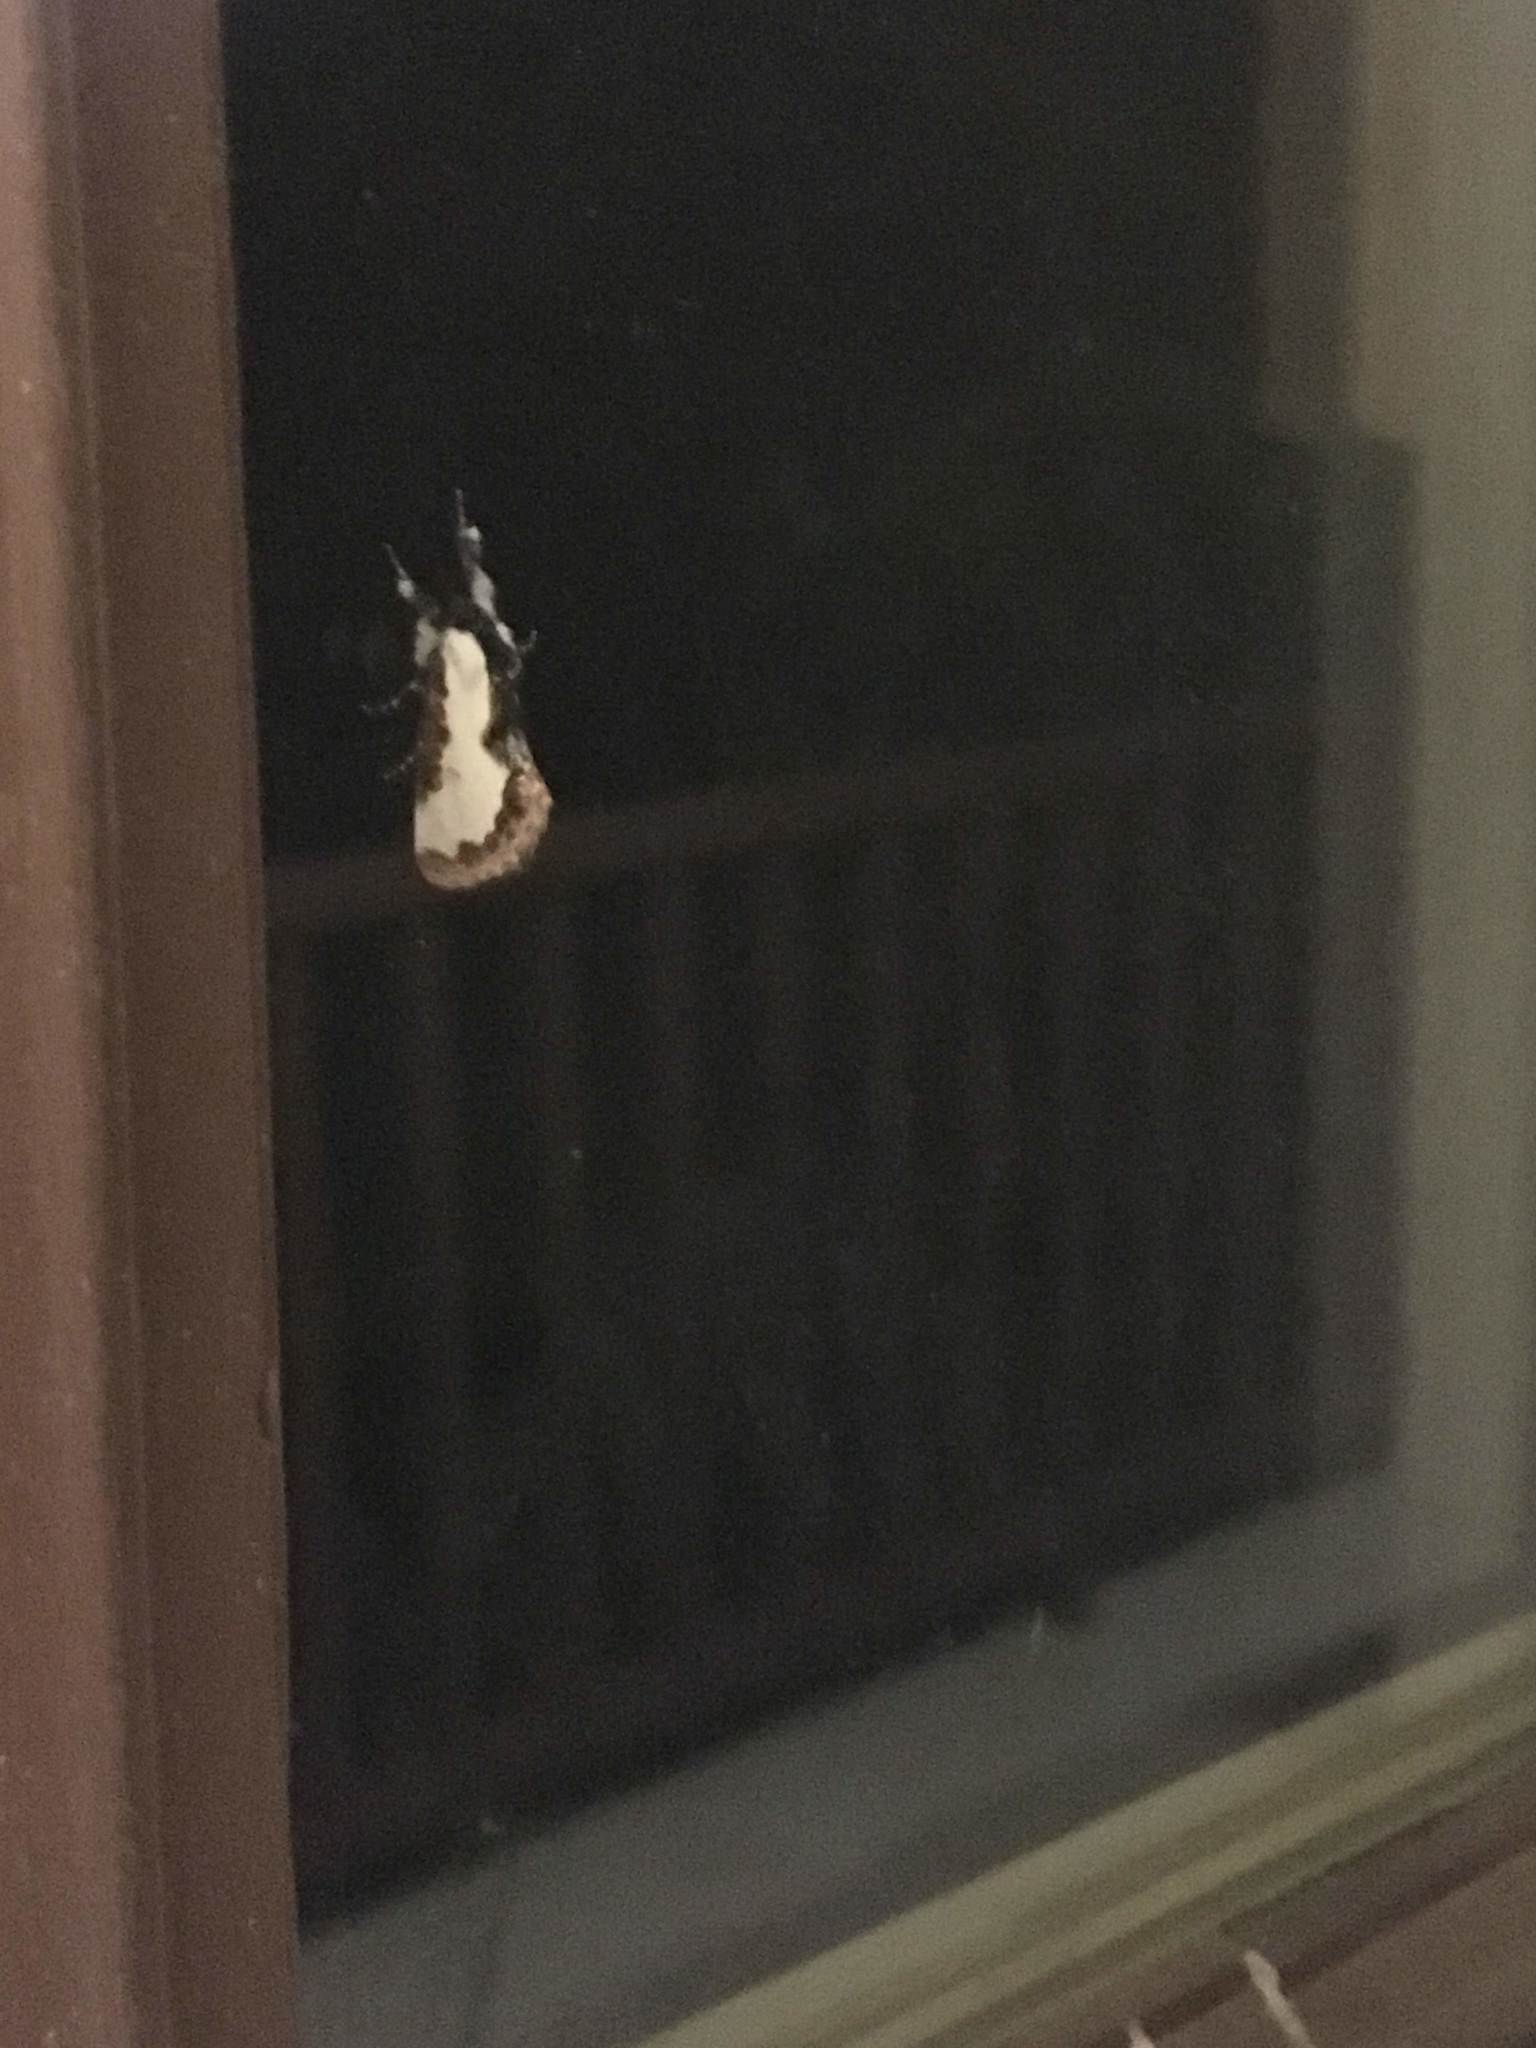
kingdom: Animalia
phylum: Arthropoda
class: Insecta
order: Lepidoptera
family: Noctuidae
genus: Eudryas
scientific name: Eudryas unio
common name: Pearly wood-nymph
